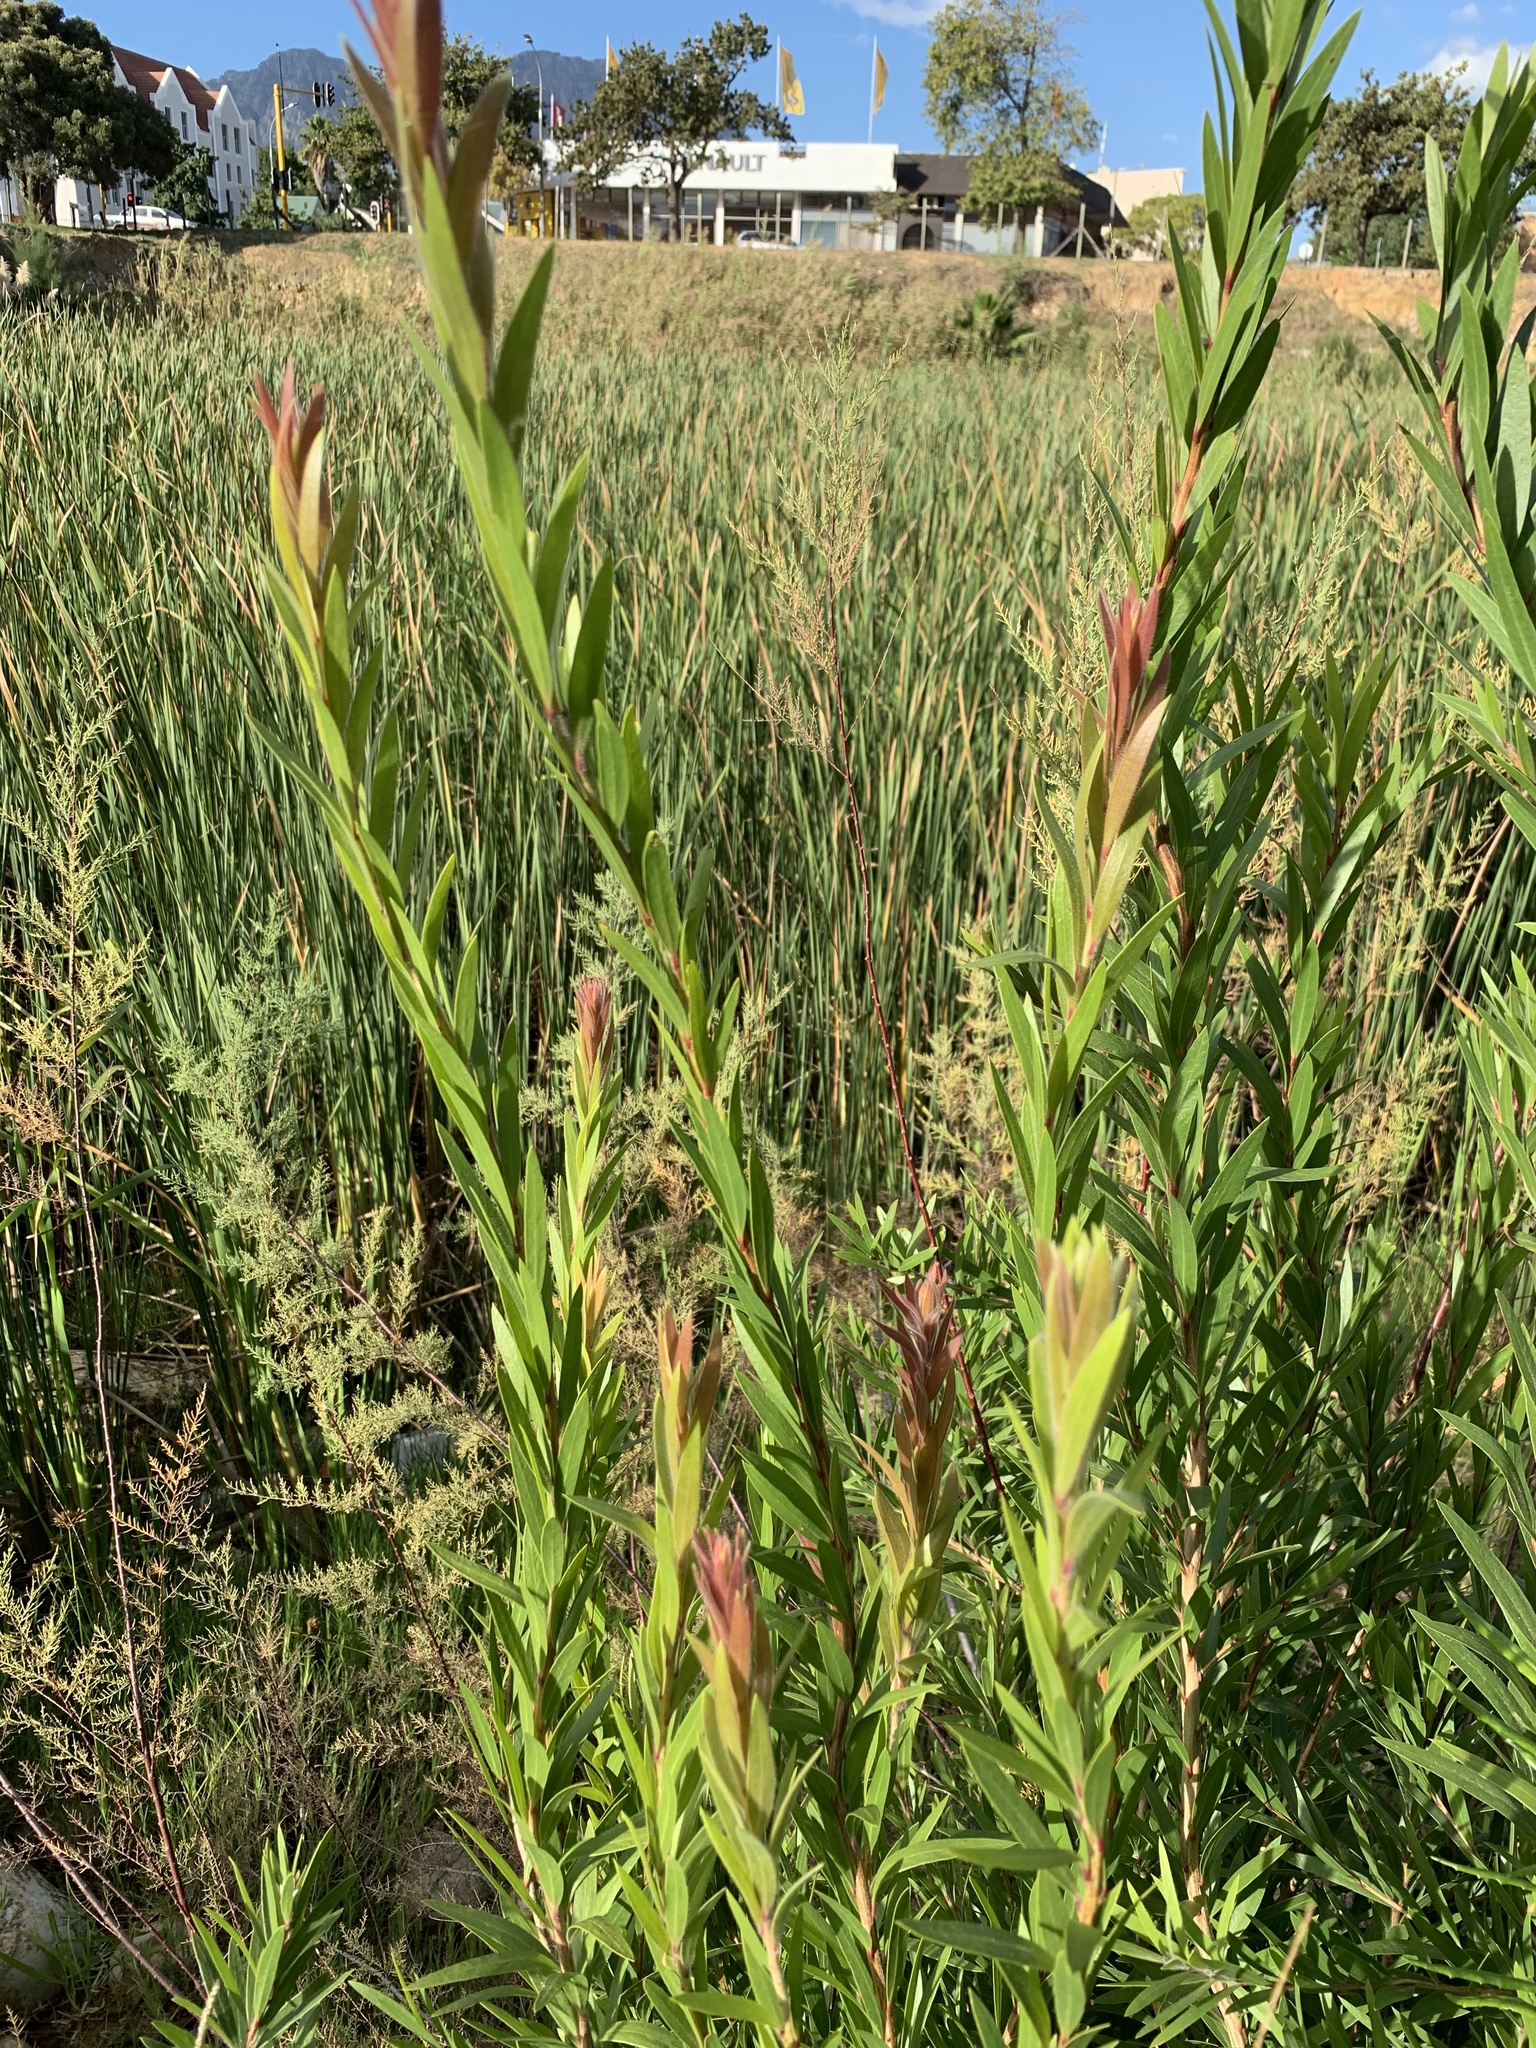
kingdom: Plantae
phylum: Tracheophyta
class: Magnoliopsida
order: Myrtales
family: Myrtaceae
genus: Callistemon
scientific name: Callistemon viminalis
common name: Drooping bottlebrush
